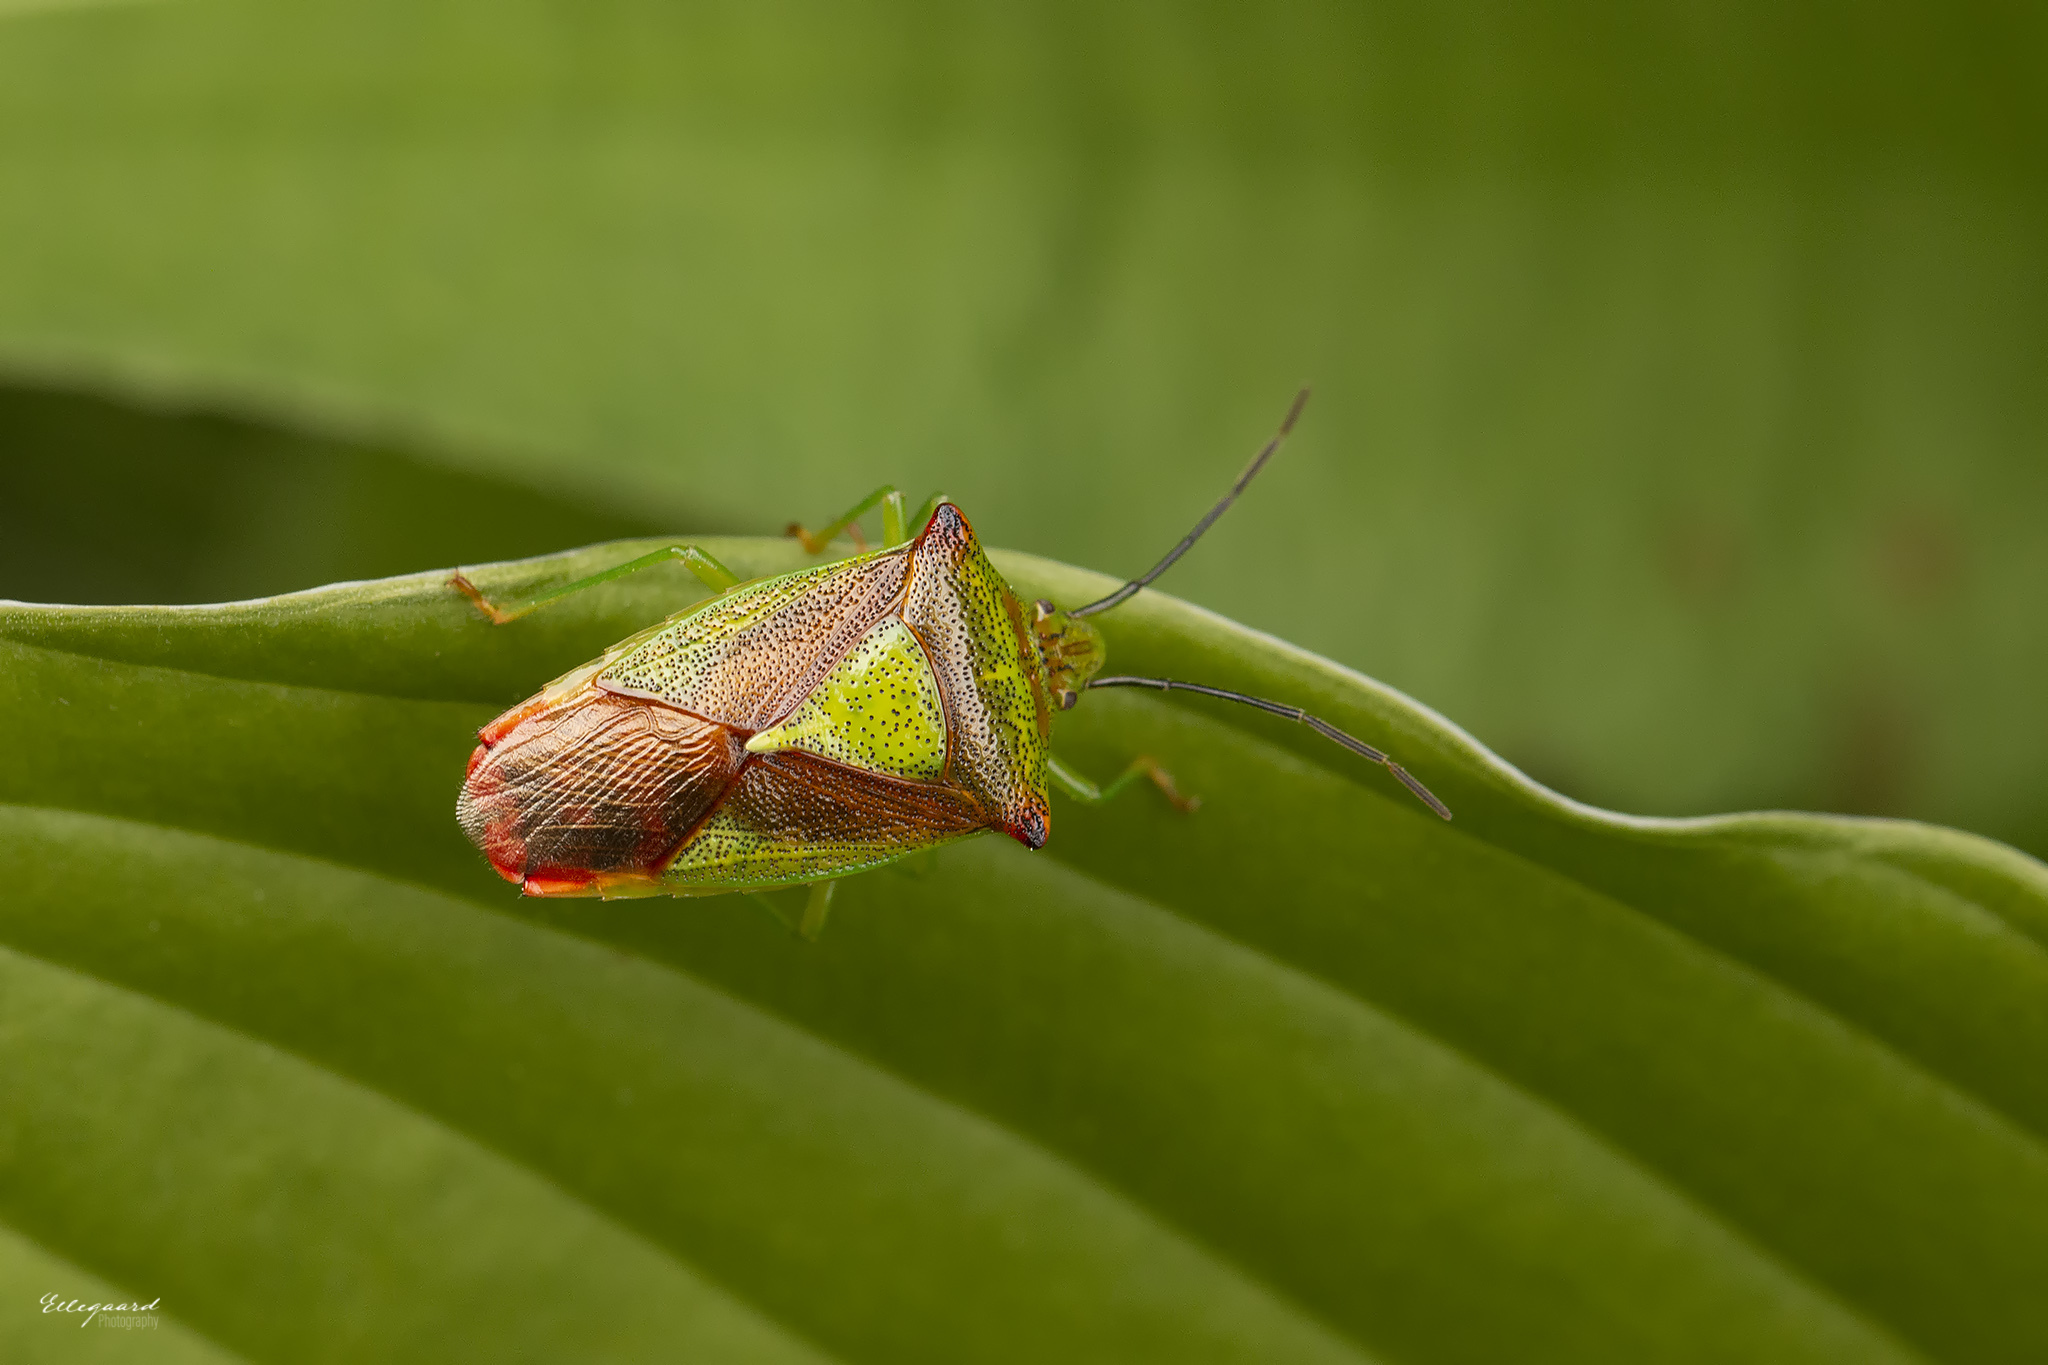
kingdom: Animalia
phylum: Arthropoda
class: Insecta
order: Hemiptera
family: Acanthosomatidae
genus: Acanthosoma
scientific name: Acanthosoma haemorrhoidale
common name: Hawthorn shieldbug
